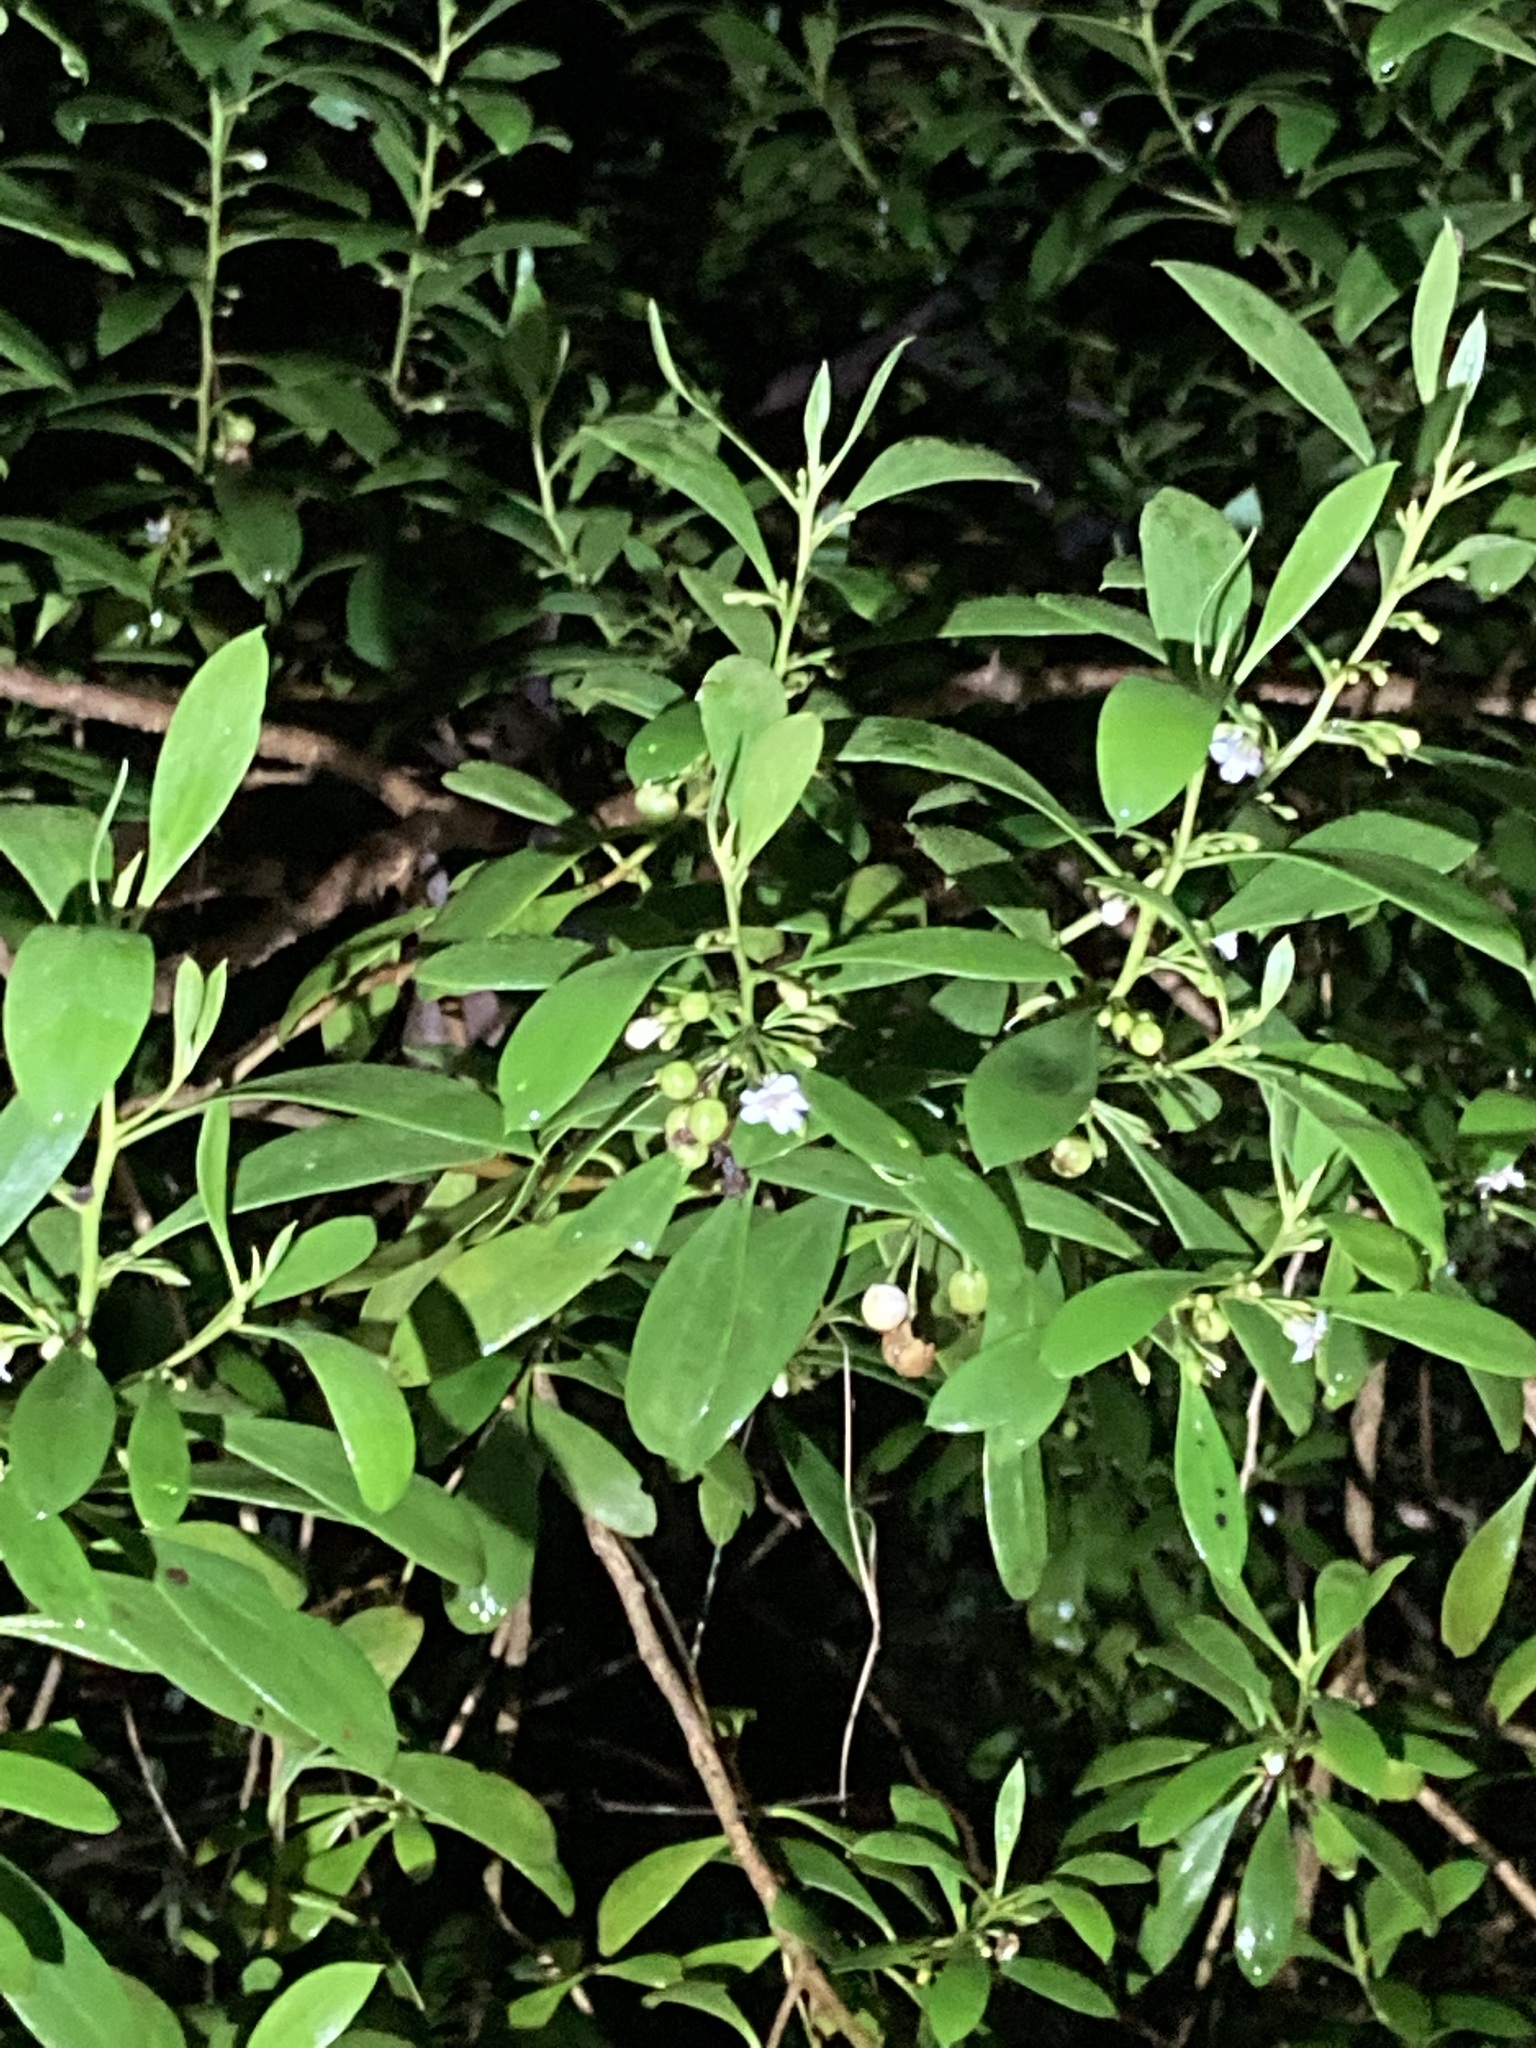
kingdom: Plantae
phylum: Tracheophyta
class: Magnoliopsida
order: Lamiales
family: Scrophulariaceae
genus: Myoporum
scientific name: Myoporum boninense
